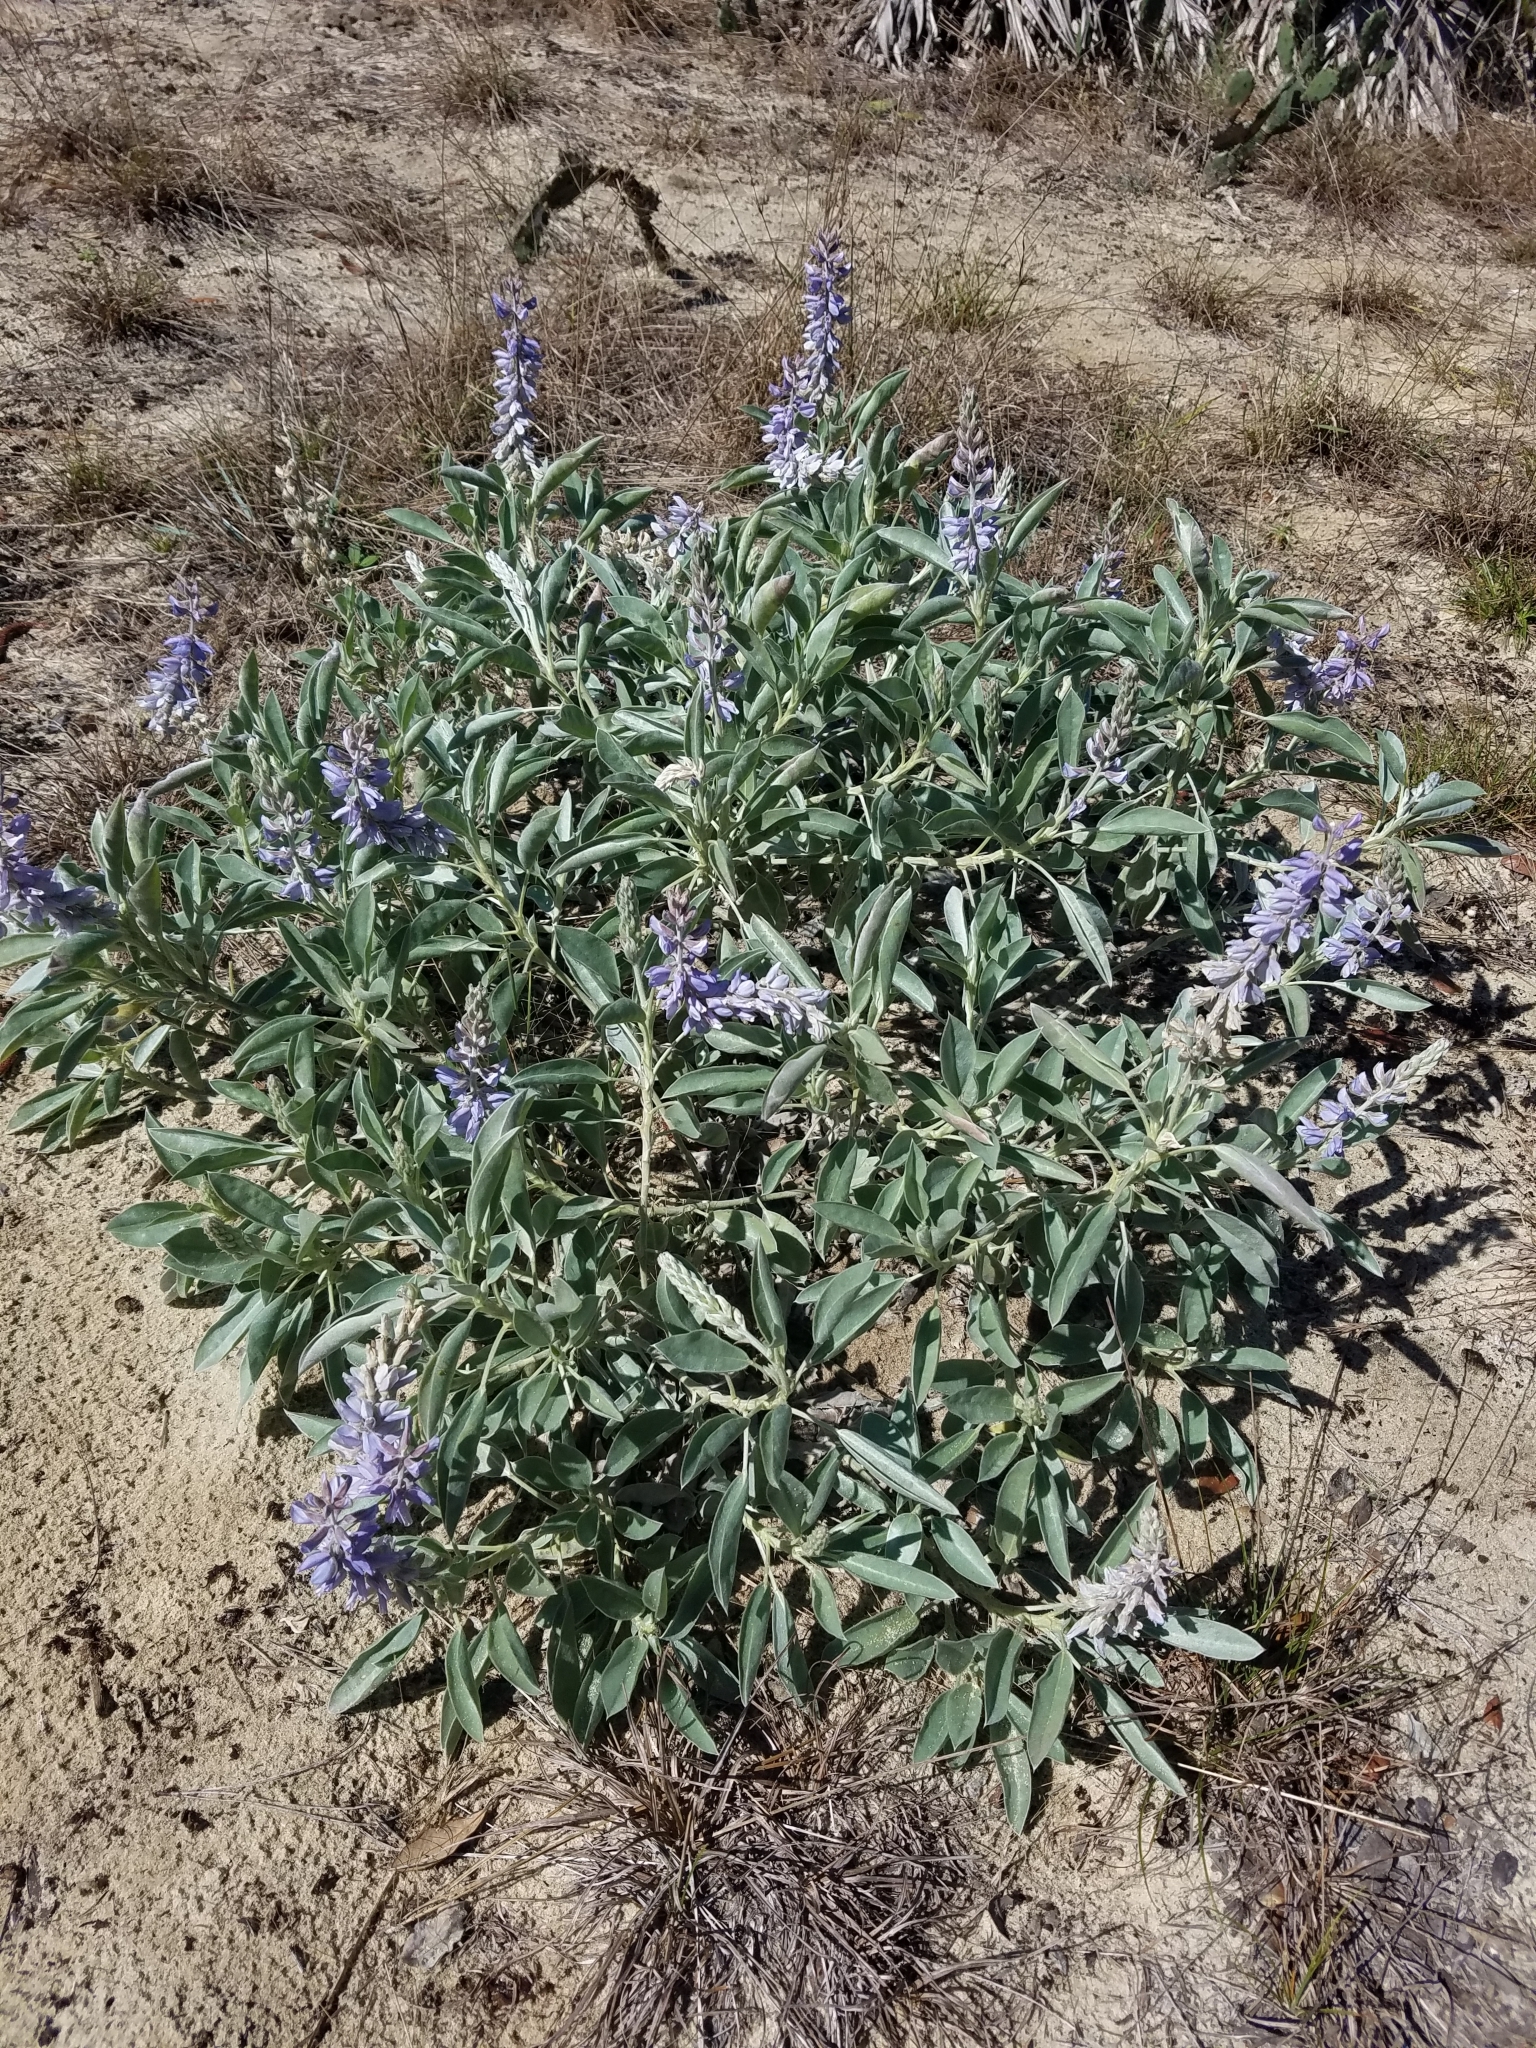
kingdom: Plantae
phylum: Tracheophyta
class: Magnoliopsida
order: Fabales
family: Fabaceae
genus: Lupinus
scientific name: Lupinus cumulicola
